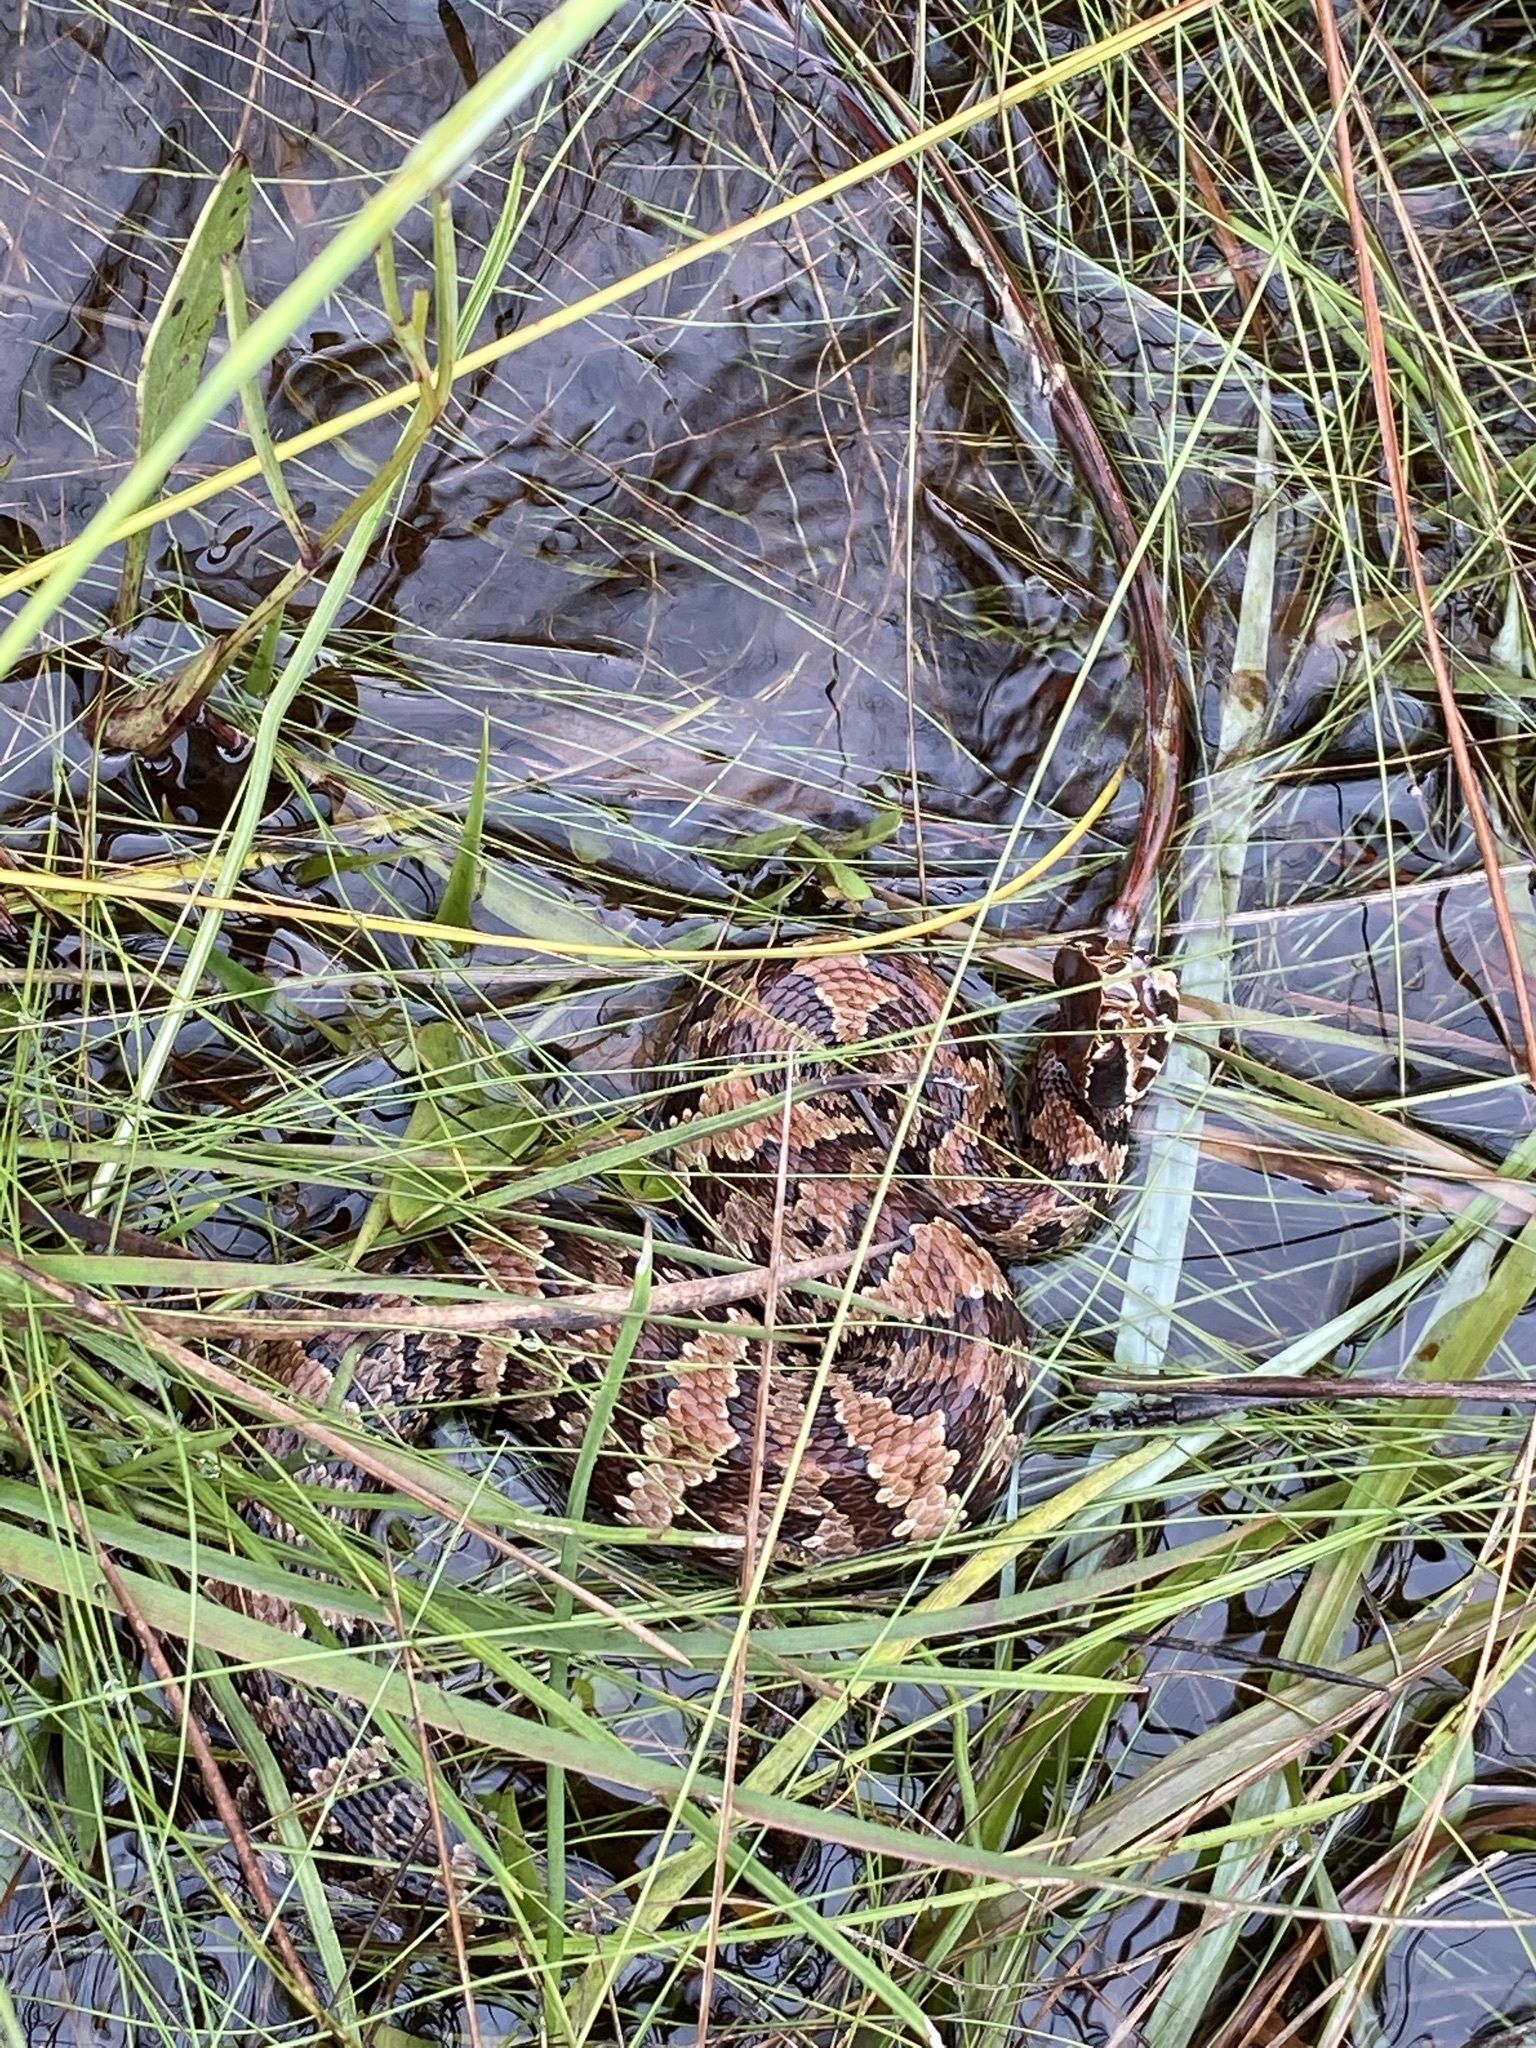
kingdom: Animalia
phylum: Chordata
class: Squamata
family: Viperidae
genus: Agkistrodon
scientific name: Agkistrodon conanti
